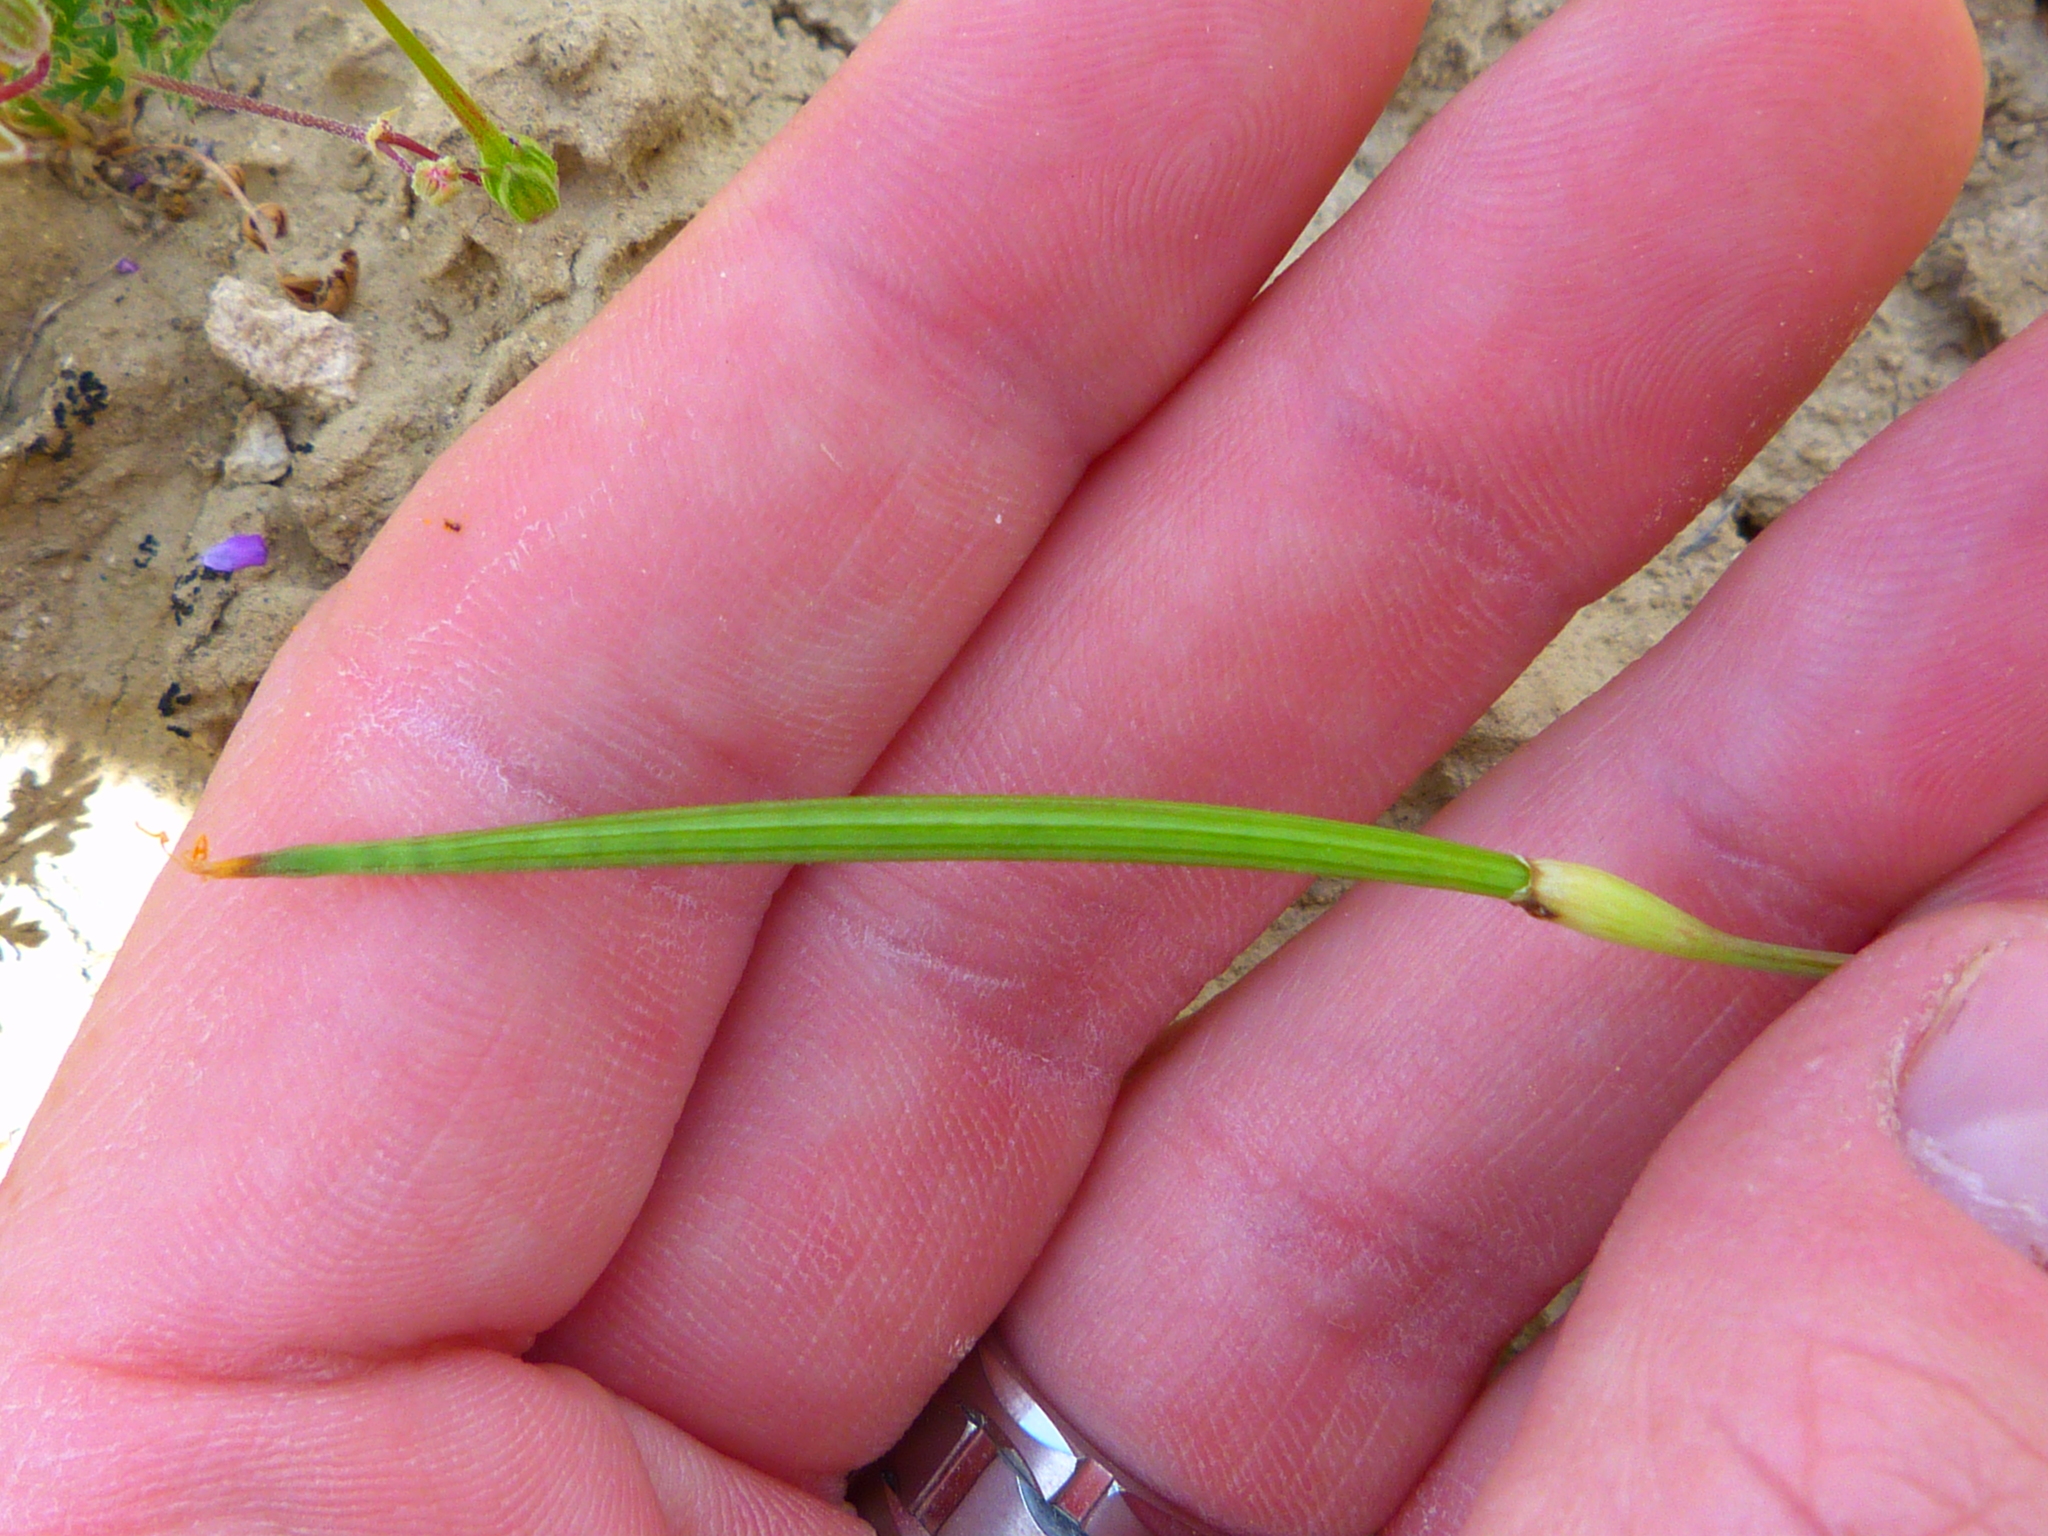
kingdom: Plantae
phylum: Tracheophyta
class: Magnoliopsida
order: Ranunculales
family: Papaveraceae
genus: Eschscholzia
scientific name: Eschscholzia lemmonii
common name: Lemmon's poppy
